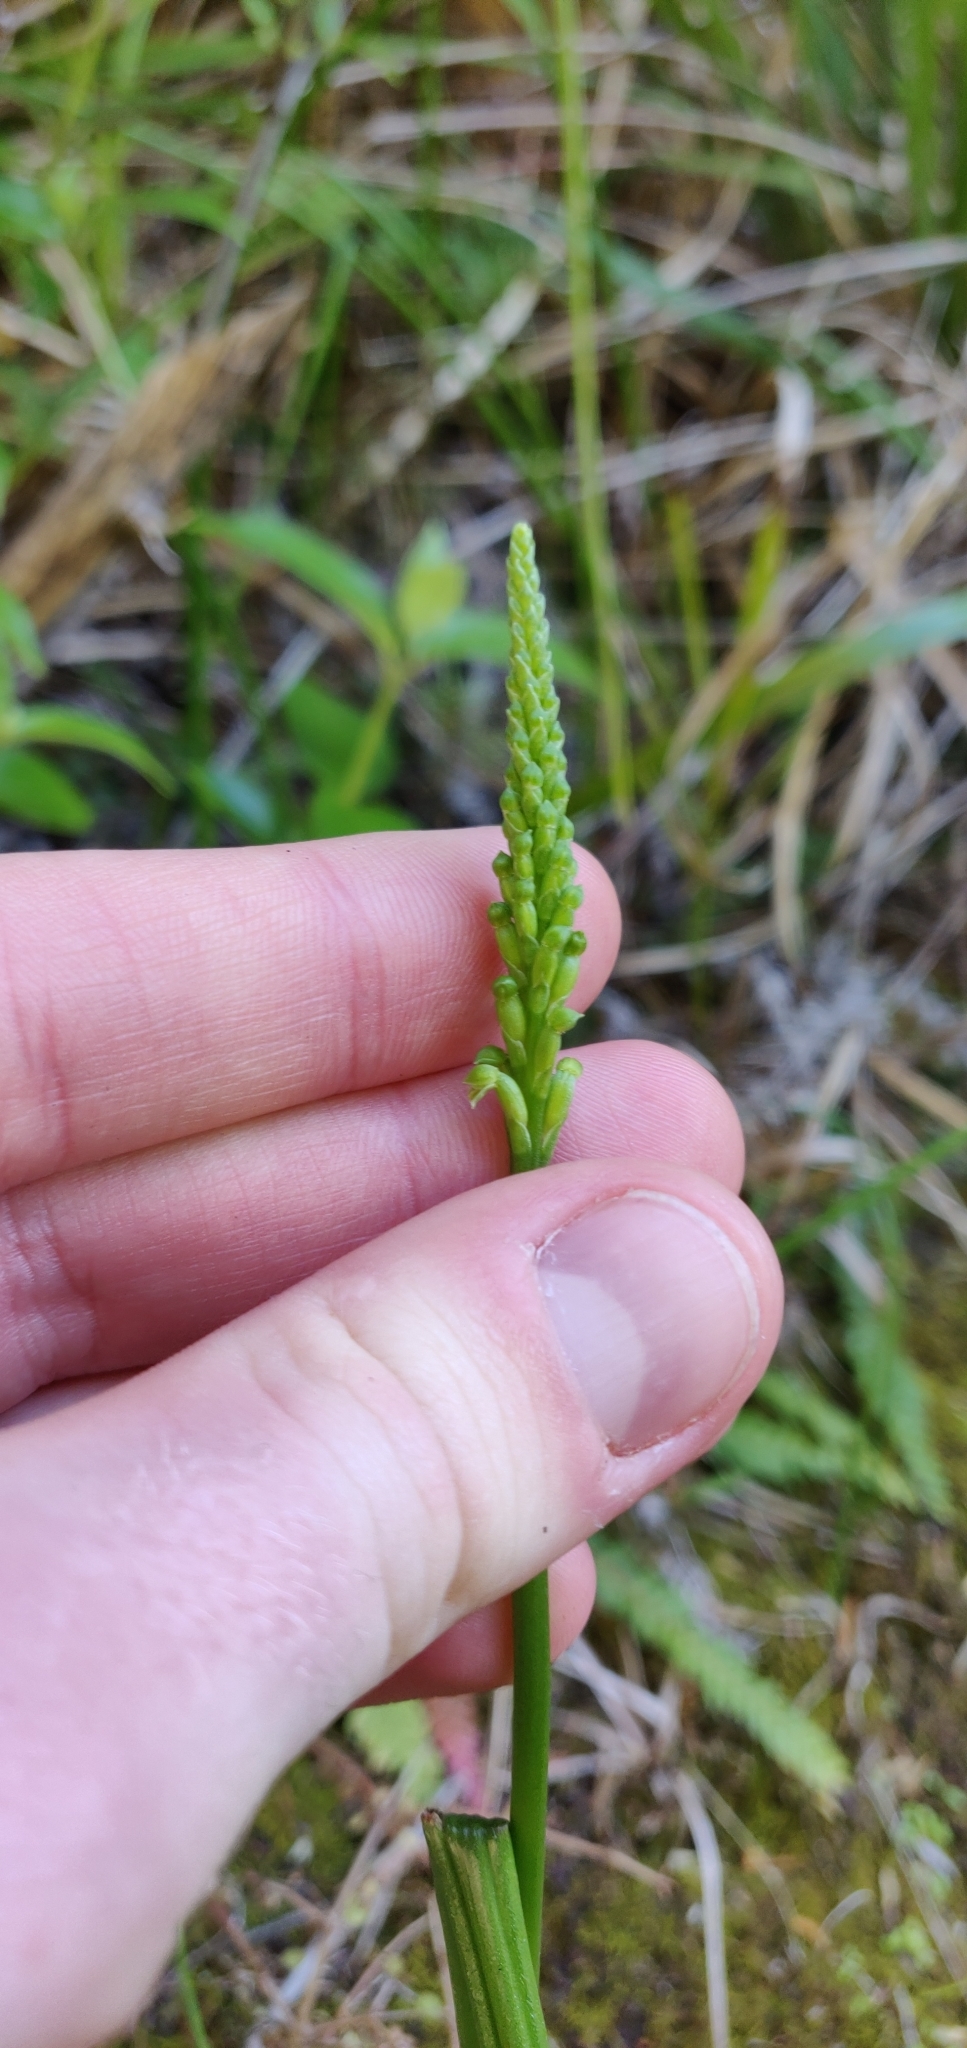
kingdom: Plantae
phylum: Tracheophyta
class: Liliopsida
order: Asparagales
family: Orchidaceae
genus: Microtis
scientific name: Microtis unifolia
